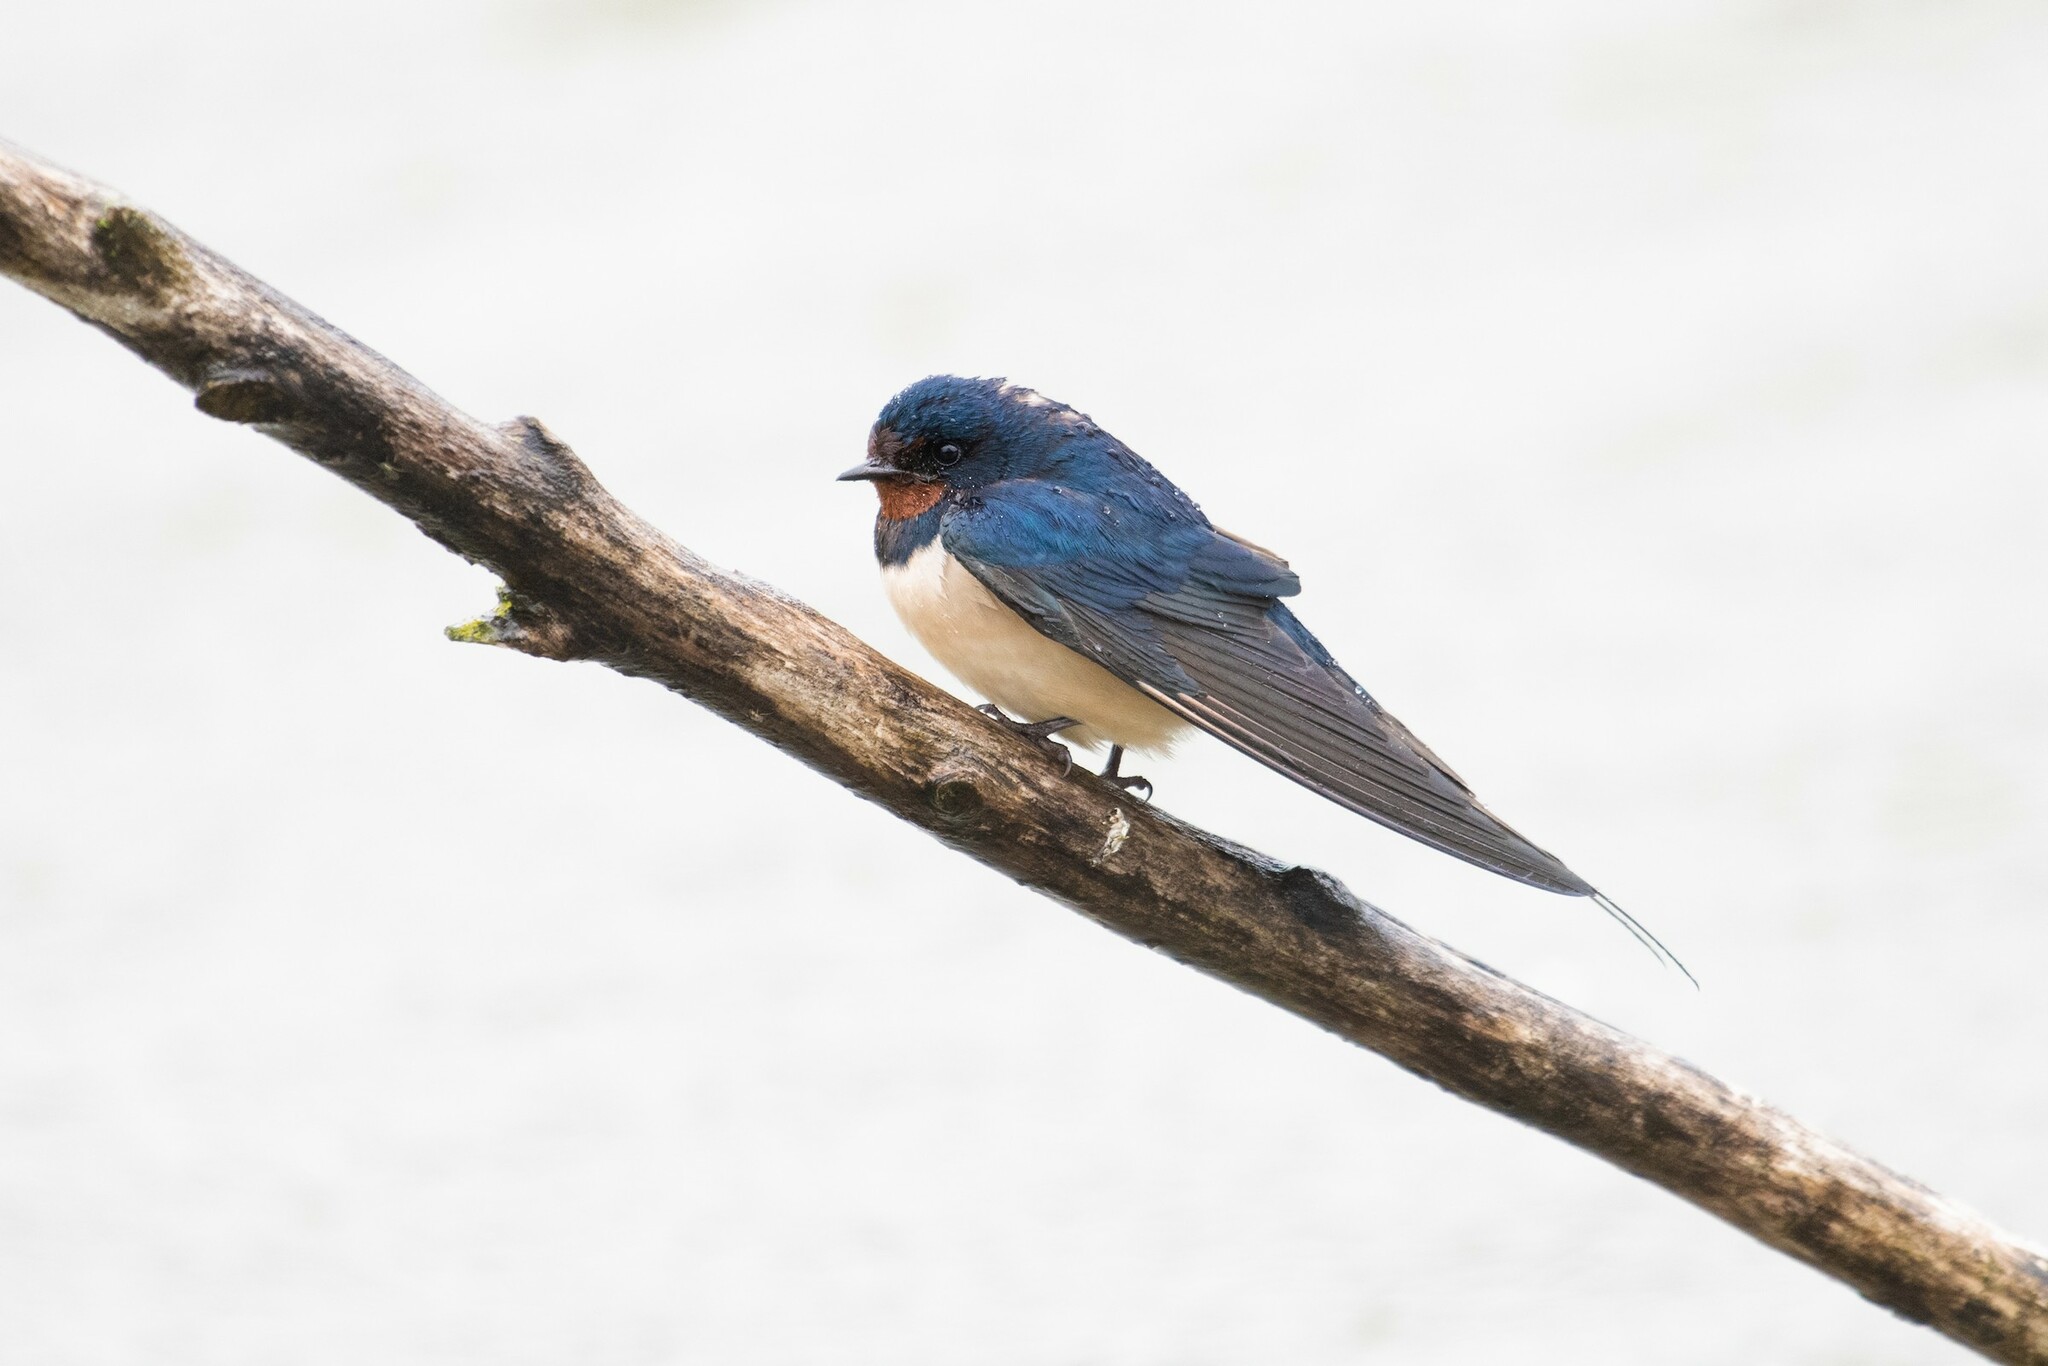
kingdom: Animalia
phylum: Chordata
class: Aves
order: Passeriformes
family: Hirundinidae
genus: Hirundo
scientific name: Hirundo rustica
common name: Barn swallow
